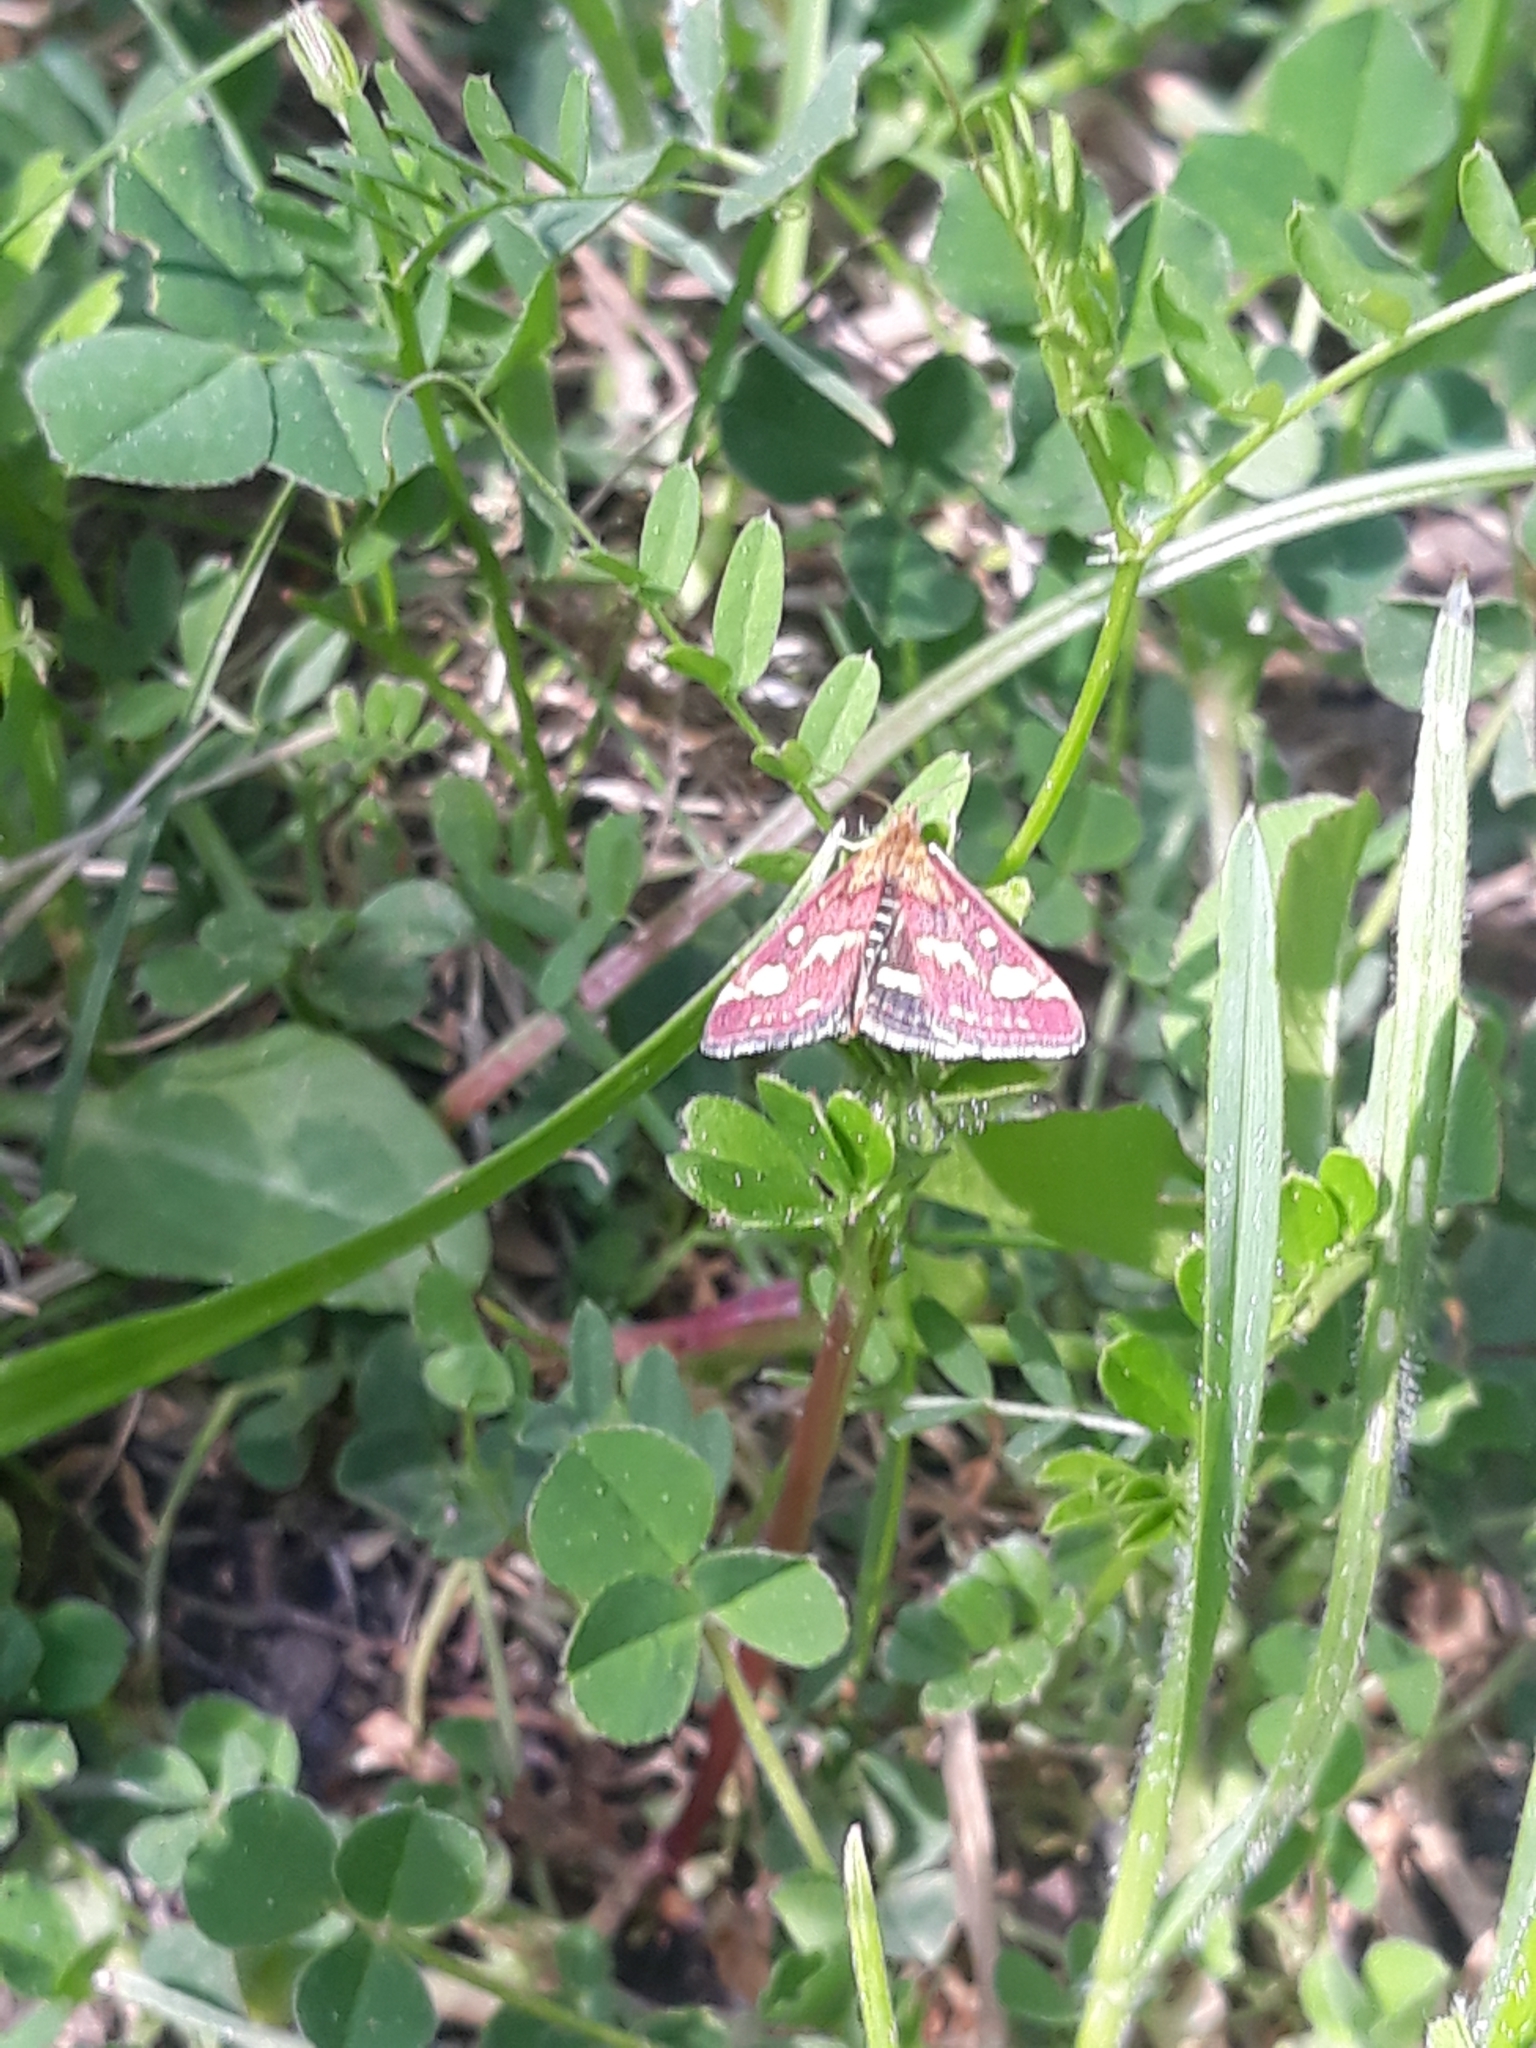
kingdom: Animalia
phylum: Arthropoda
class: Insecta
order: Lepidoptera
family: Crambidae
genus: Pyrausta
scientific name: Pyrausta purpuralis
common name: Common purple & gold
